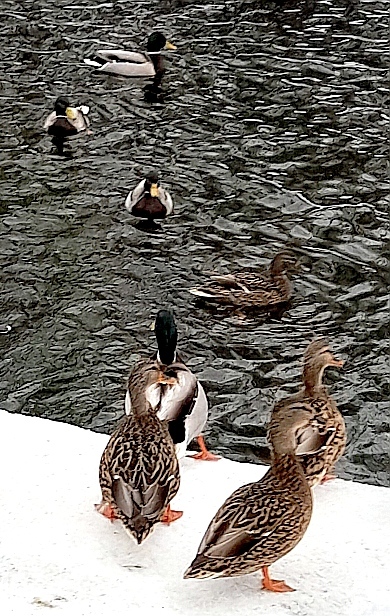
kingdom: Animalia
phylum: Chordata
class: Aves
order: Anseriformes
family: Anatidae
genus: Anas
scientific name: Anas platyrhynchos
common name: Mallard
